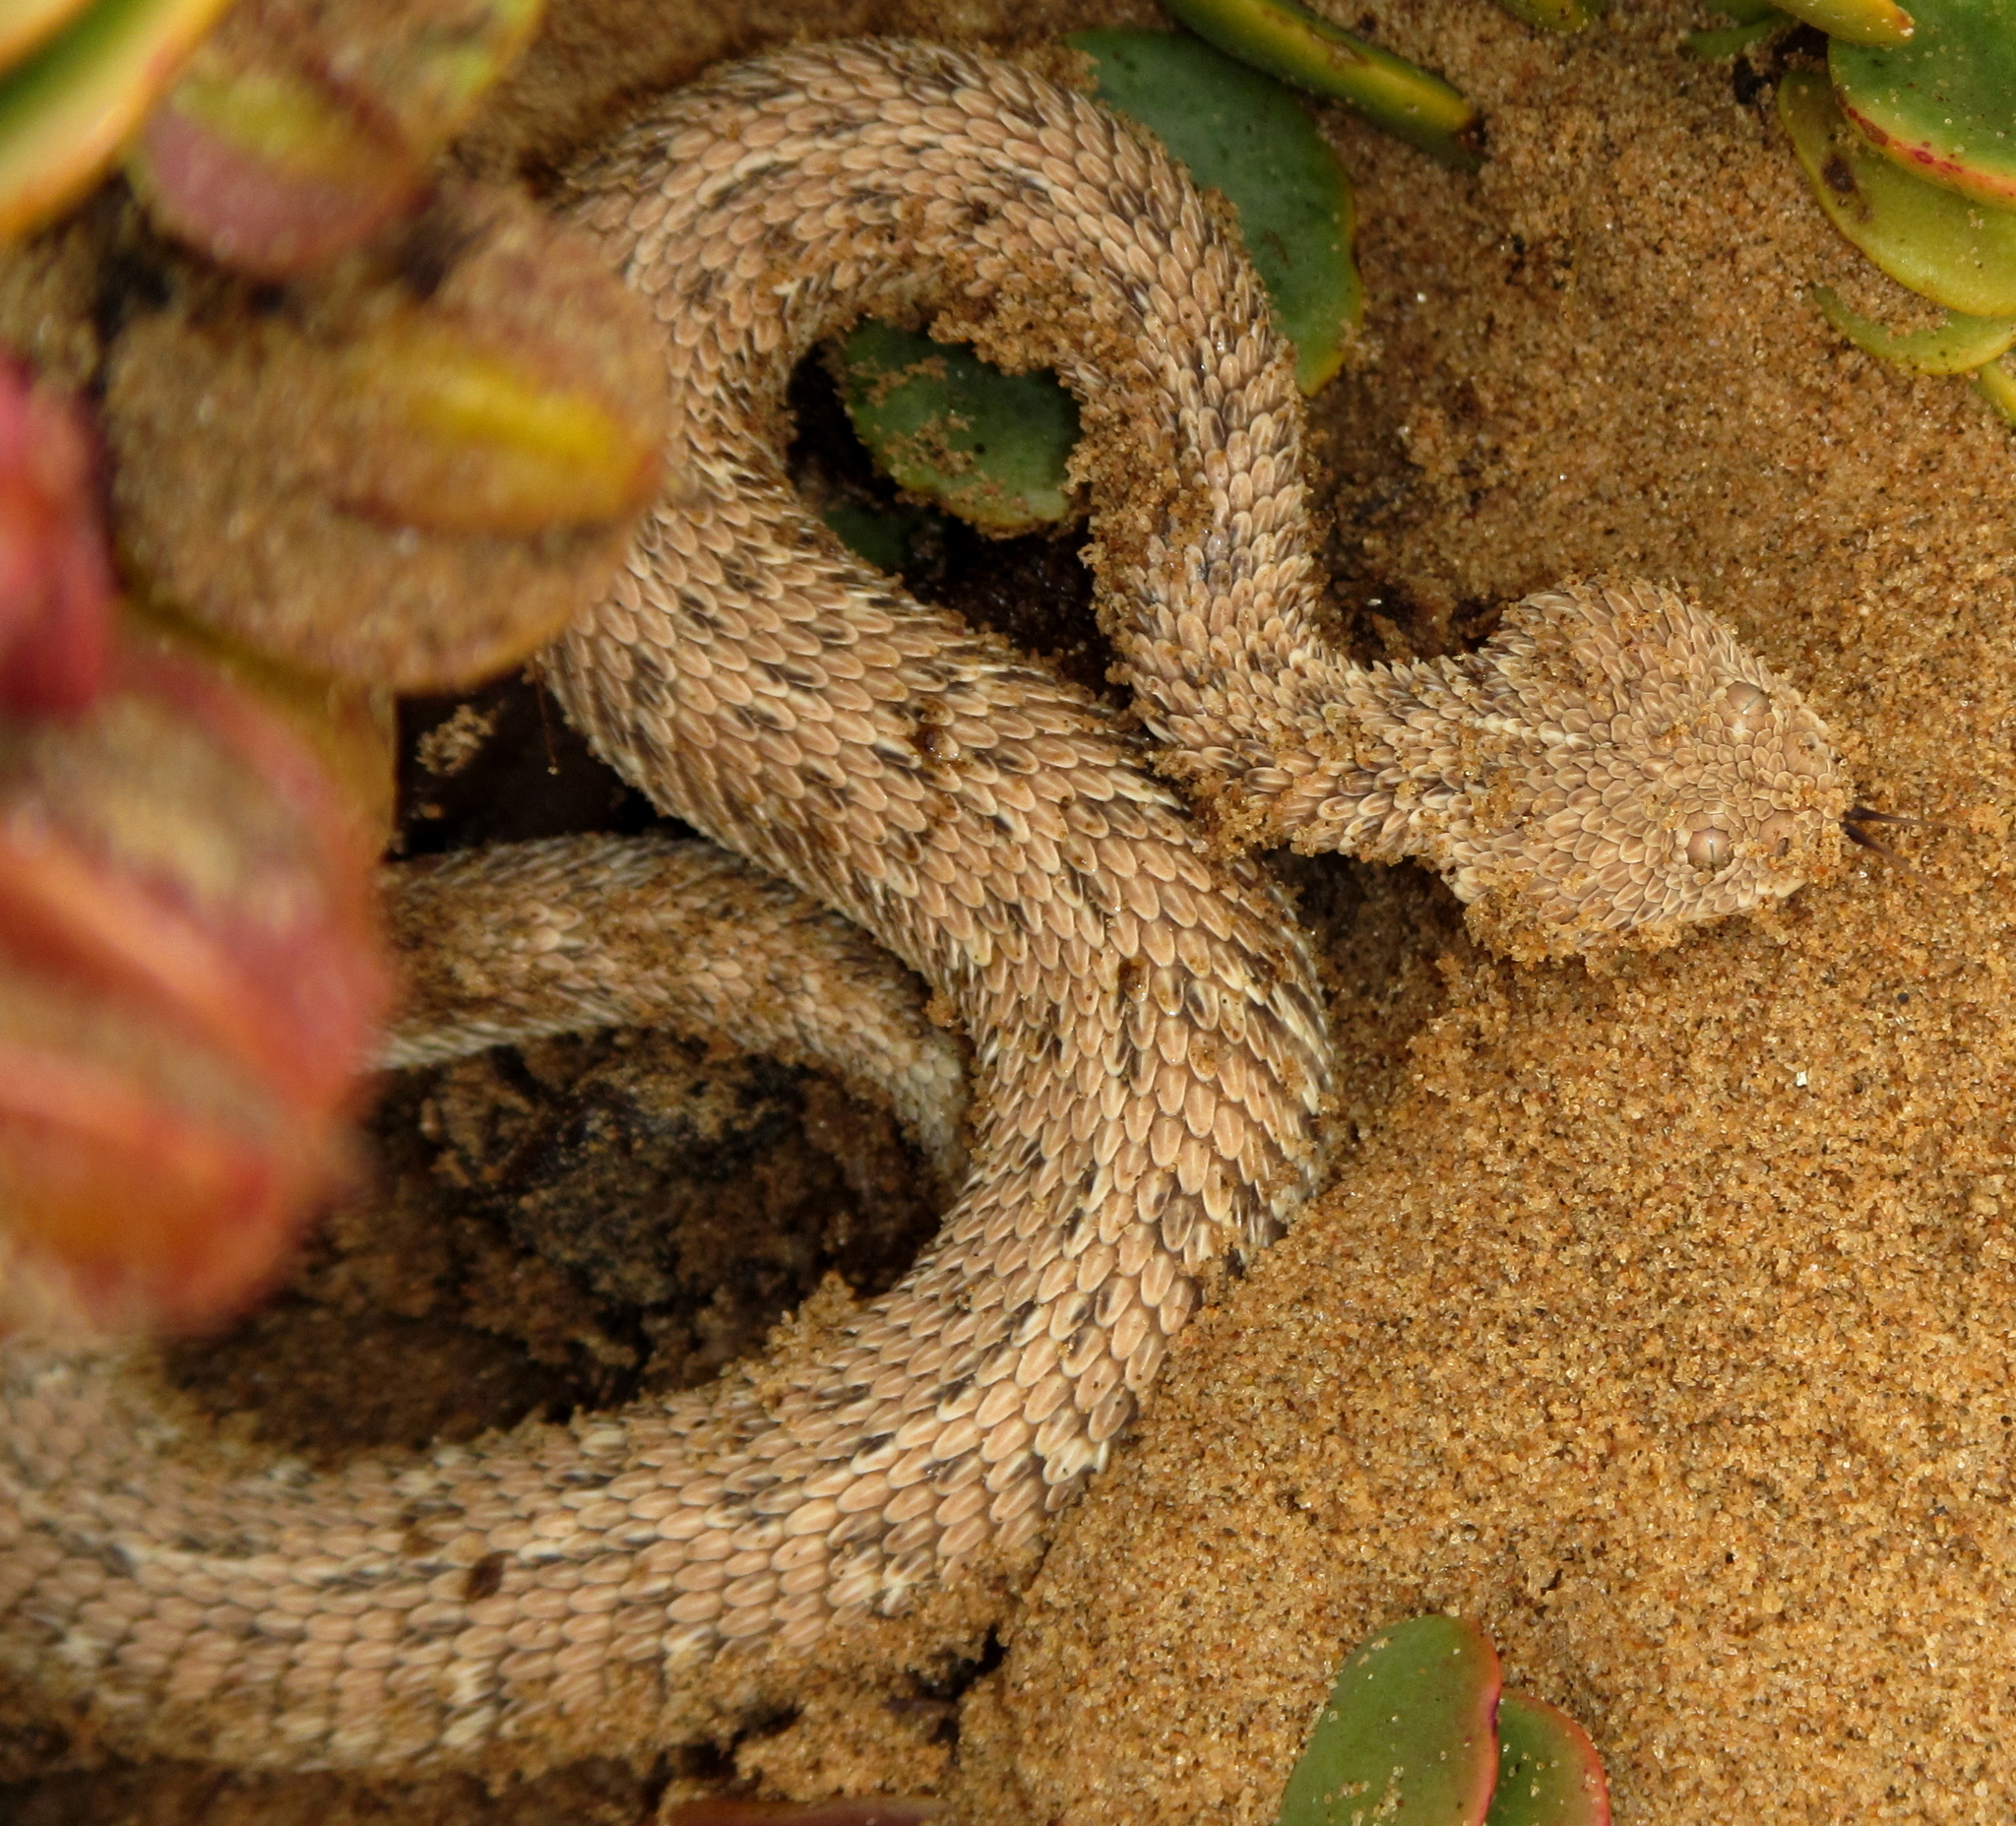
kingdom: Animalia
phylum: Chordata
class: Squamata
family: Viperidae
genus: Bitis
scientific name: Bitis peringueyi
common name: Dwarf puff adder
